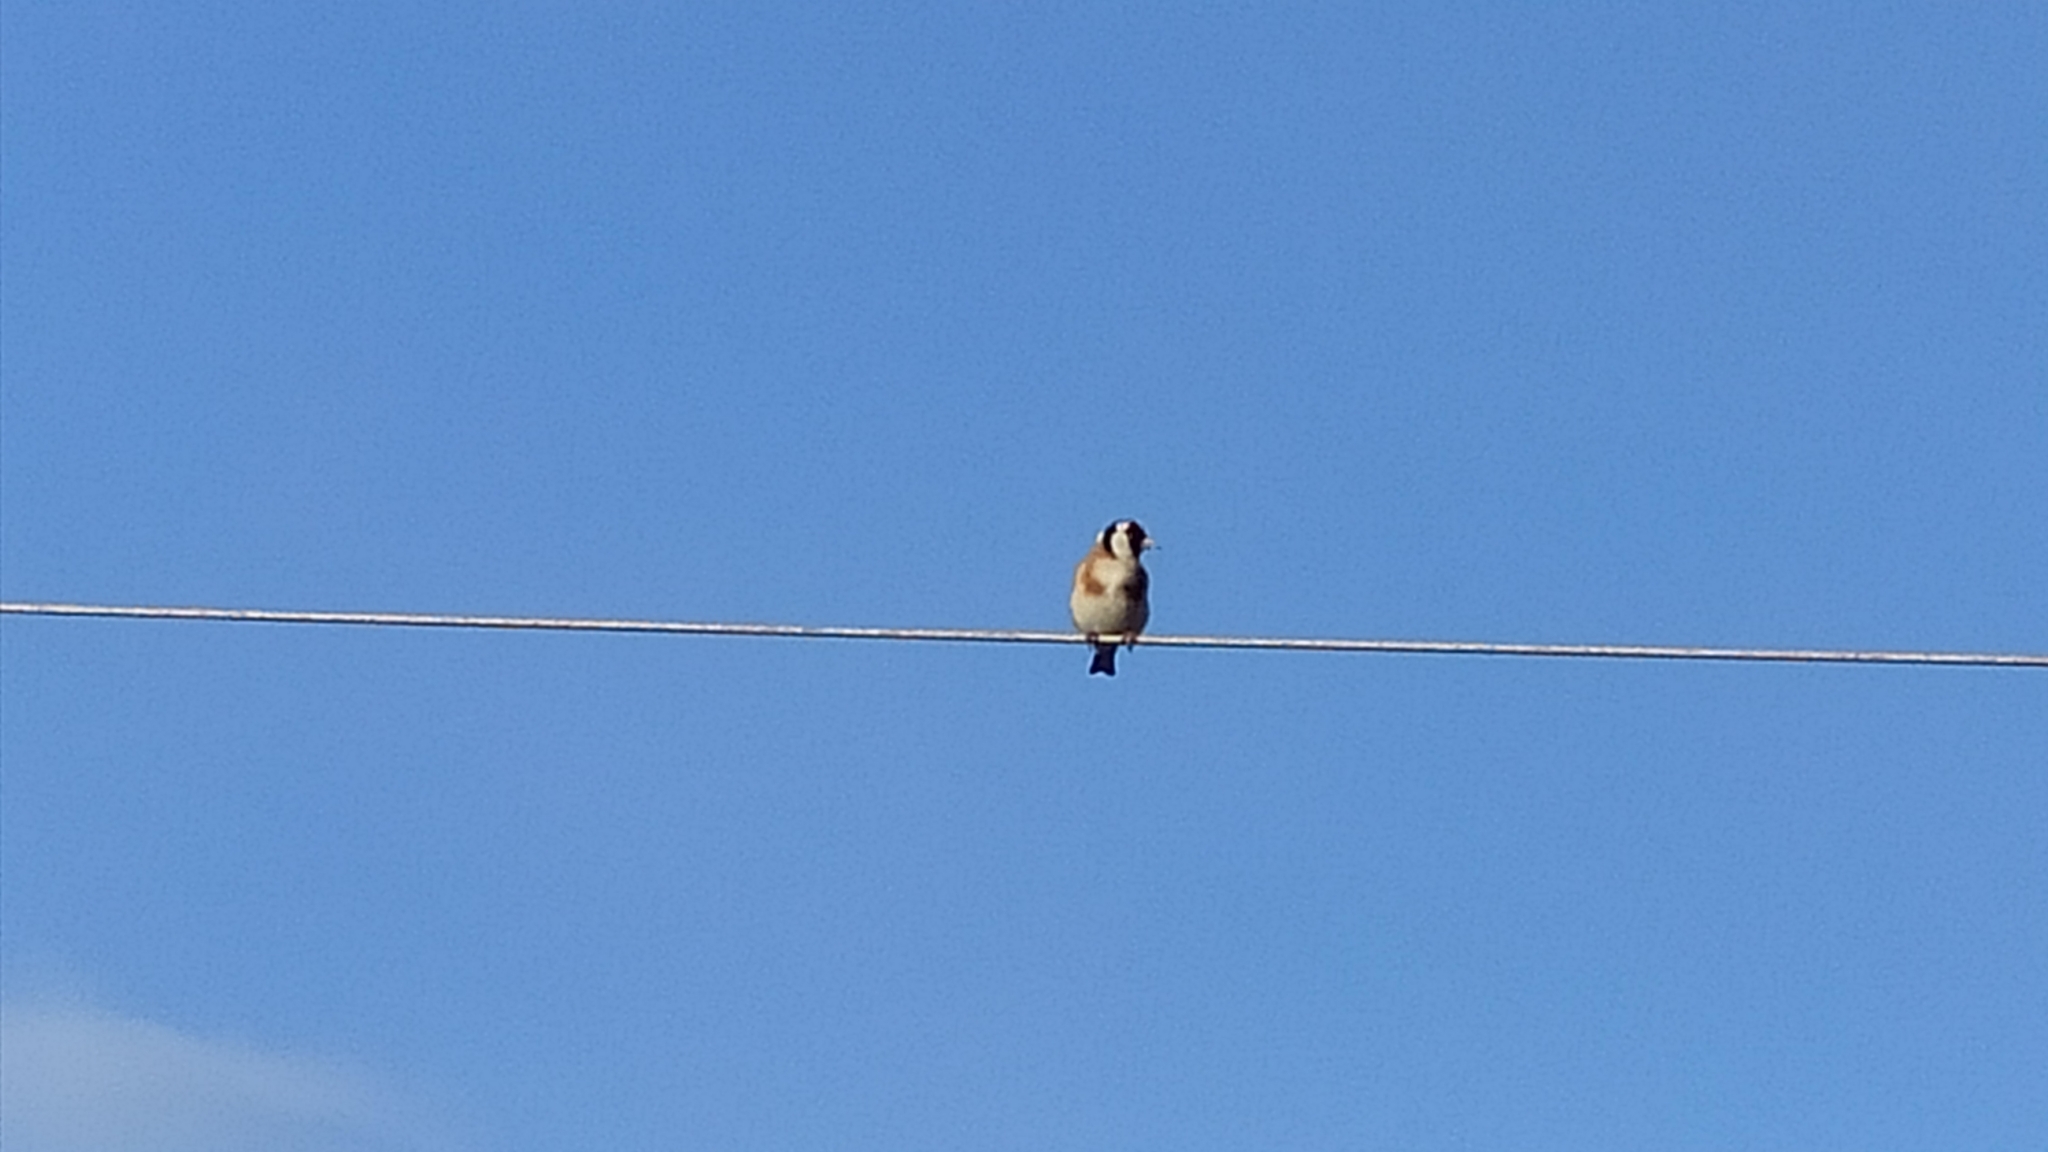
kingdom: Animalia
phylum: Chordata
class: Aves
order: Passeriformes
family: Fringillidae
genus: Carduelis
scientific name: Carduelis carduelis
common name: European goldfinch
